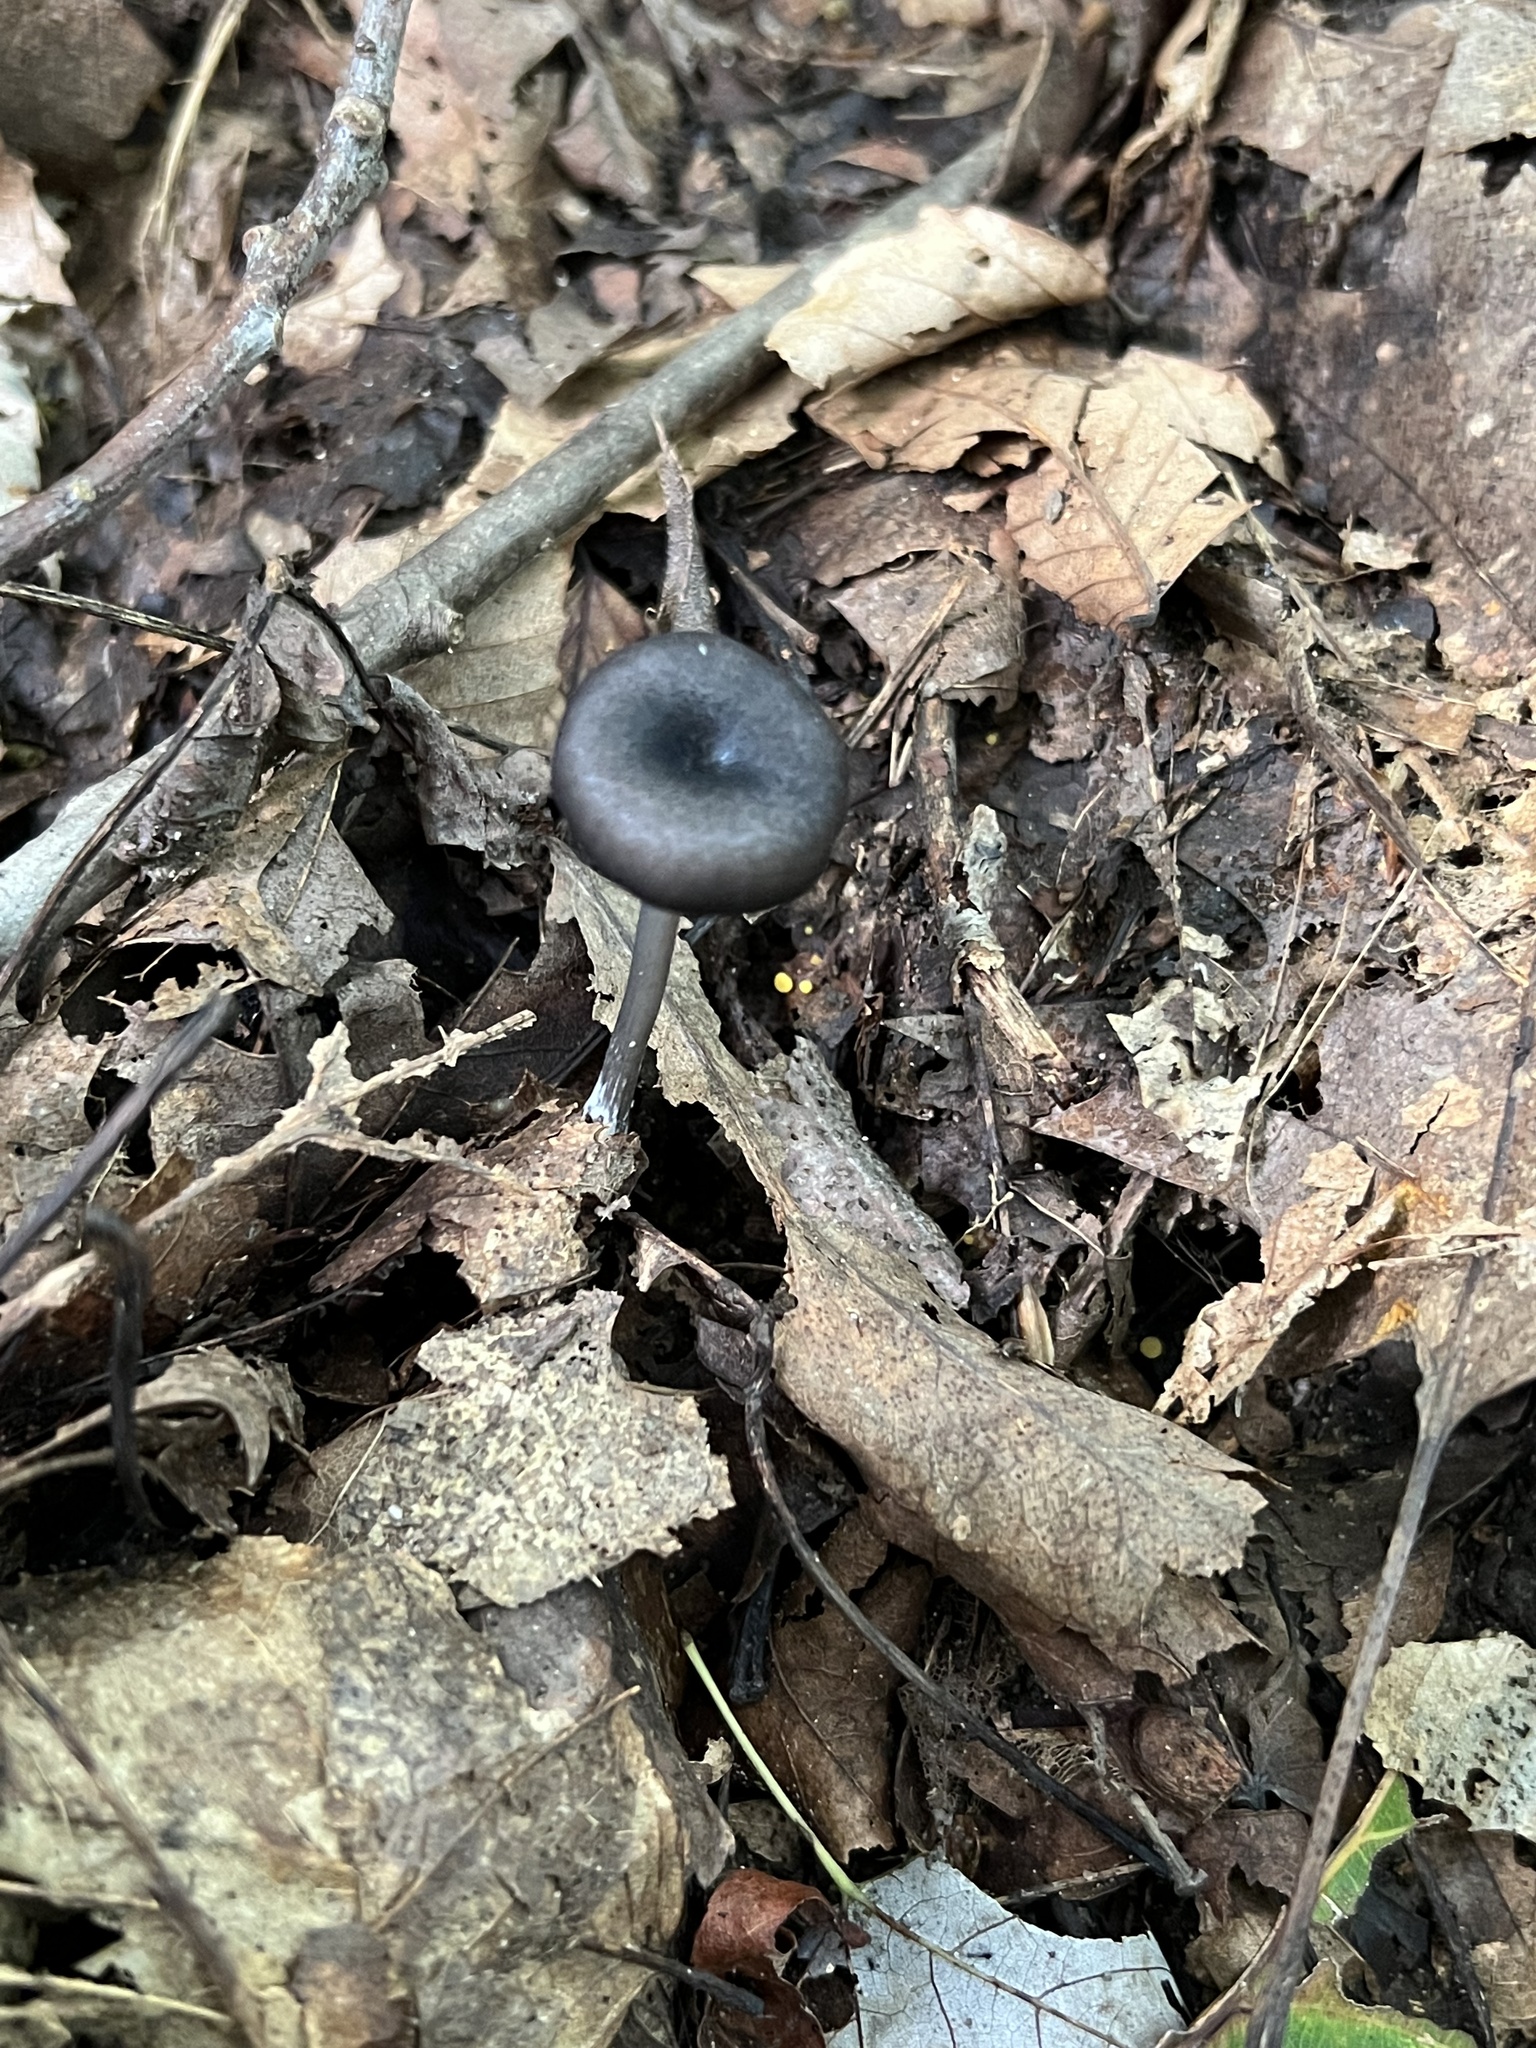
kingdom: Fungi
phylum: Basidiomycota
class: Agaricomycetes
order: Agaricales
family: Entolomataceae
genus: Entoloma
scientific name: Entoloma serrulatum
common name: Blue edge pinkgill
